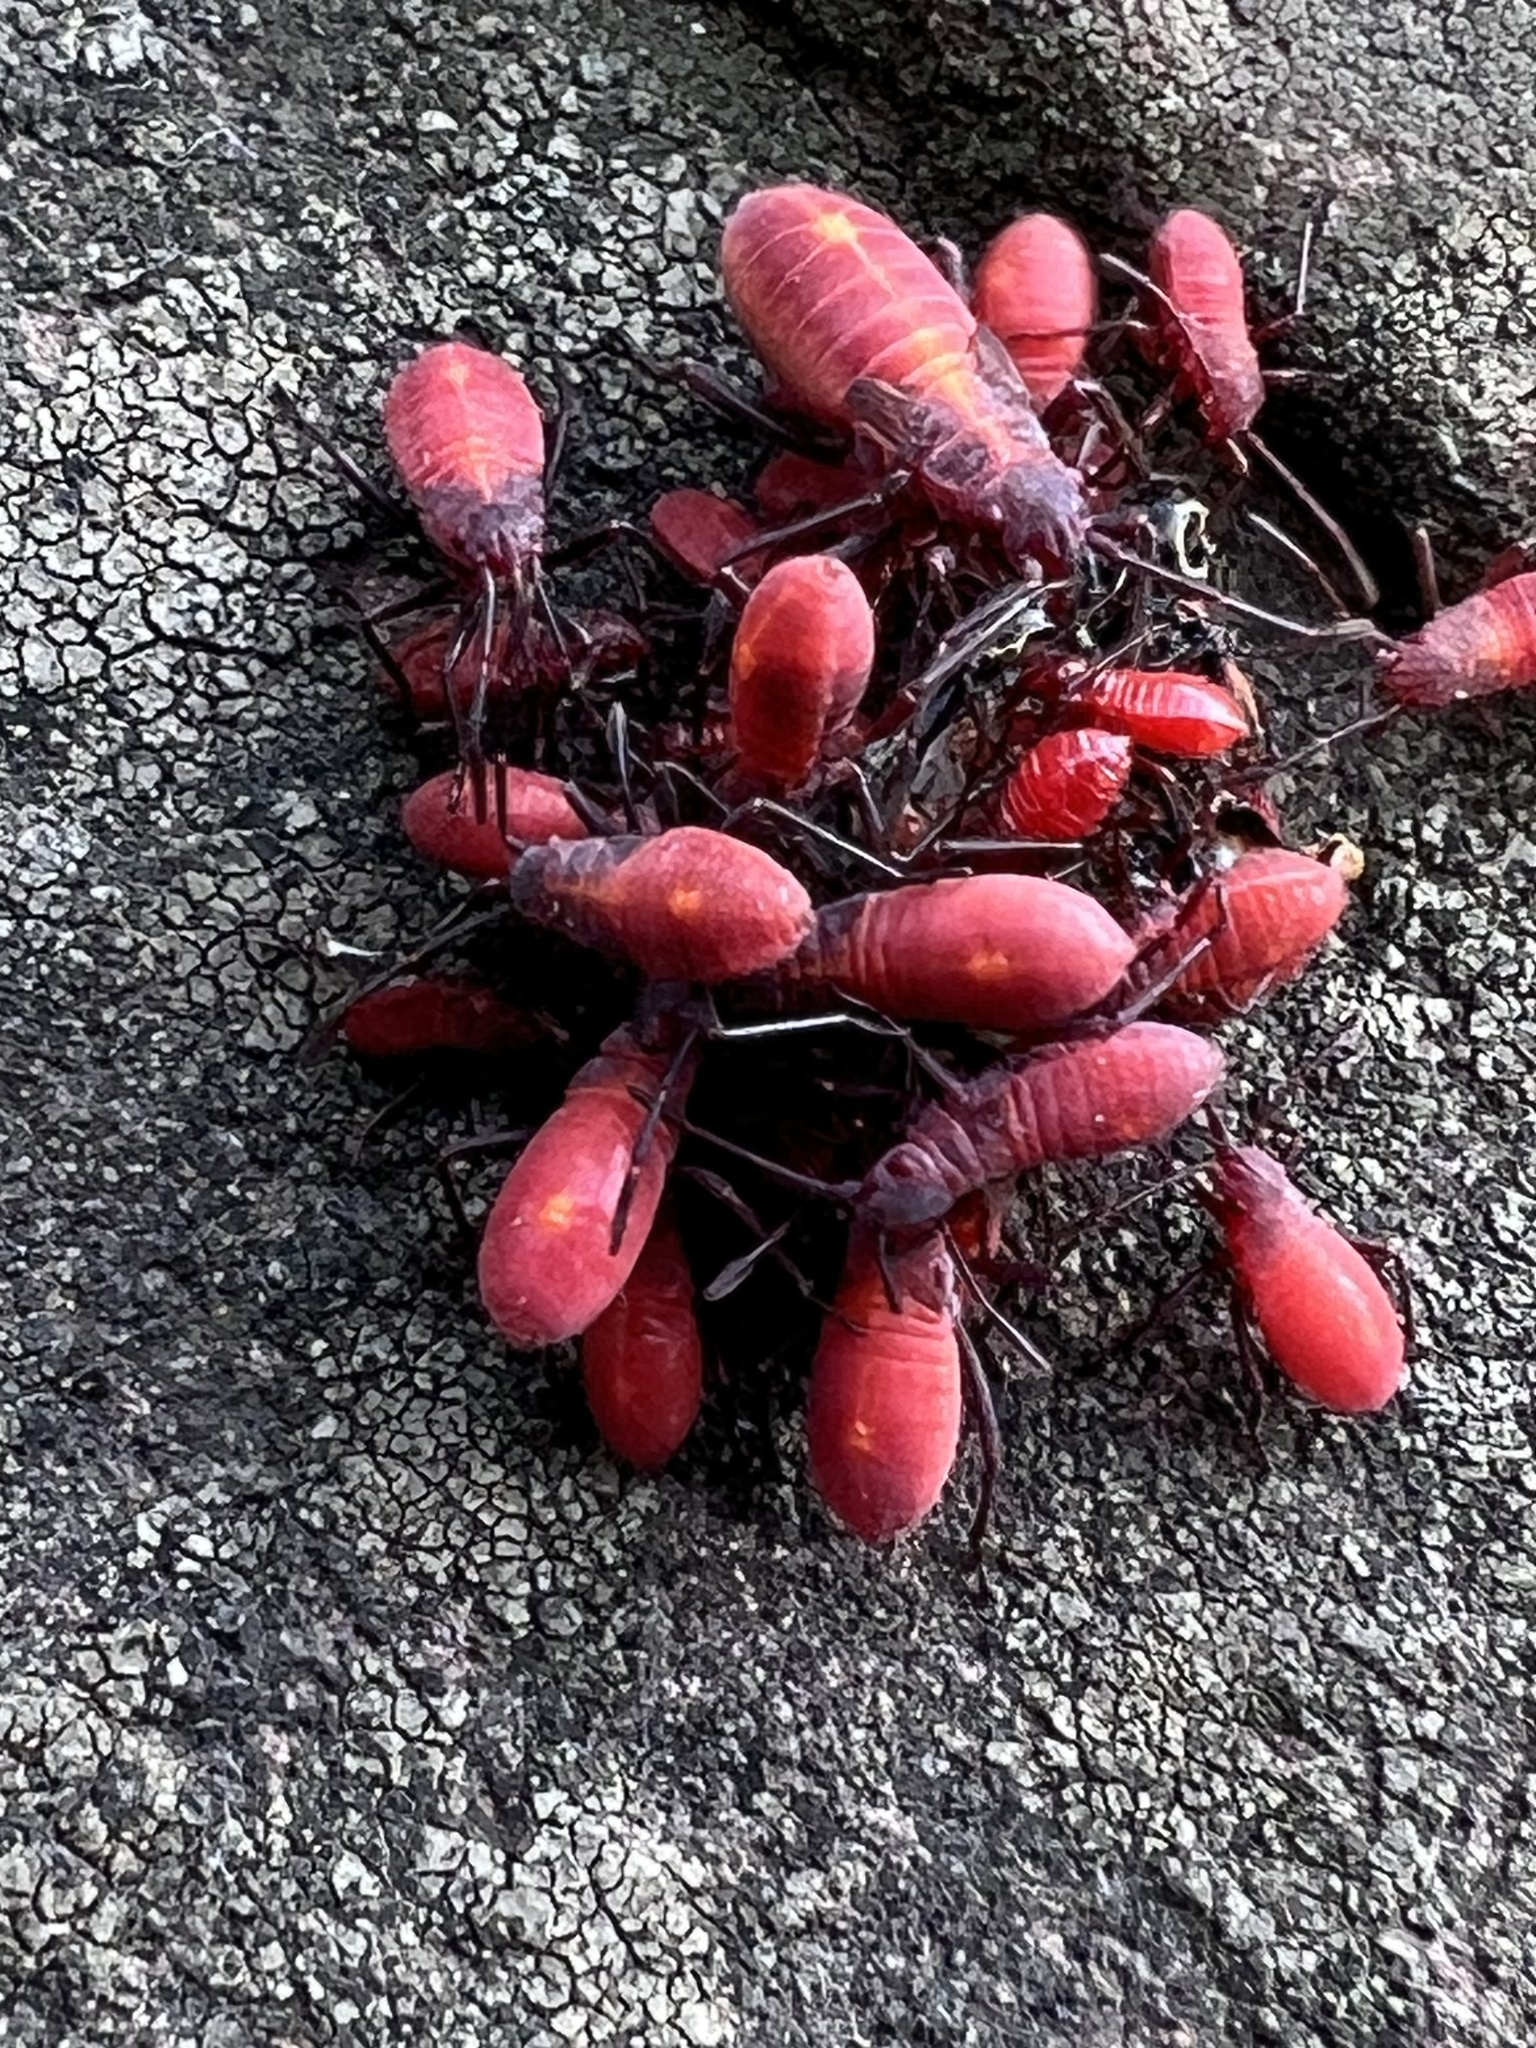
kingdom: Animalia
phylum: Arthropoda
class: Insecta
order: Hemiptera
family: Rhopalidae
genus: Boisea
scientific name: Boisea trivittata
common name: Boxelder bug
